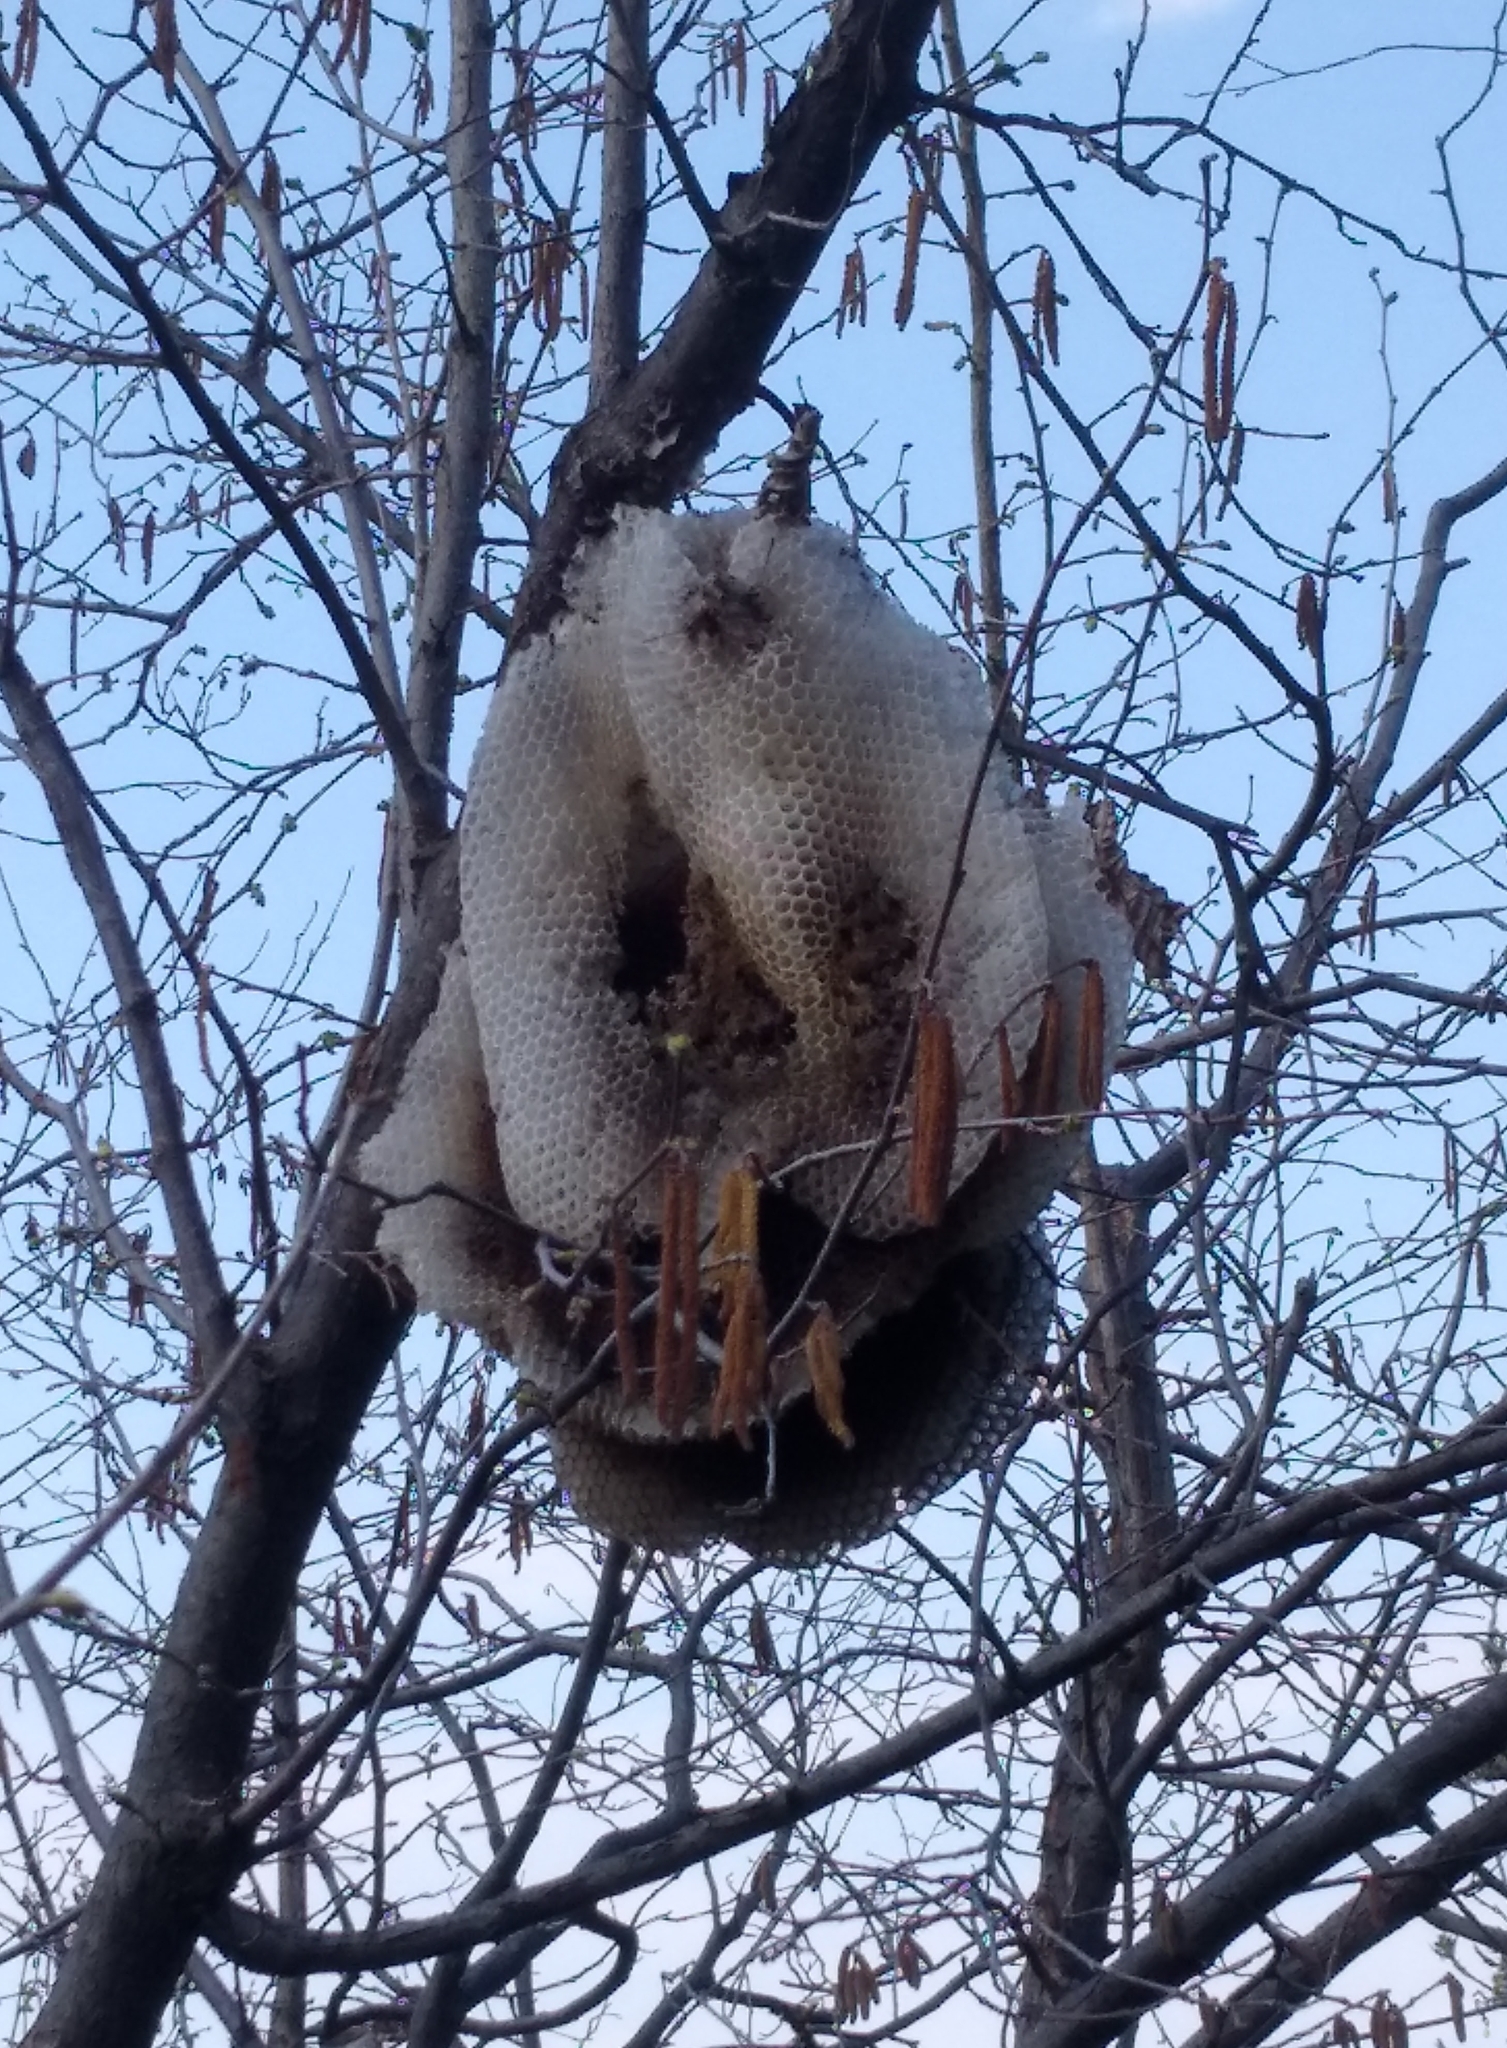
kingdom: Animalia
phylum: Arthropoda
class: Insecta
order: Hymenoptera
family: Apidae
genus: Apis
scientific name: Apis mellifera
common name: Honey bee
